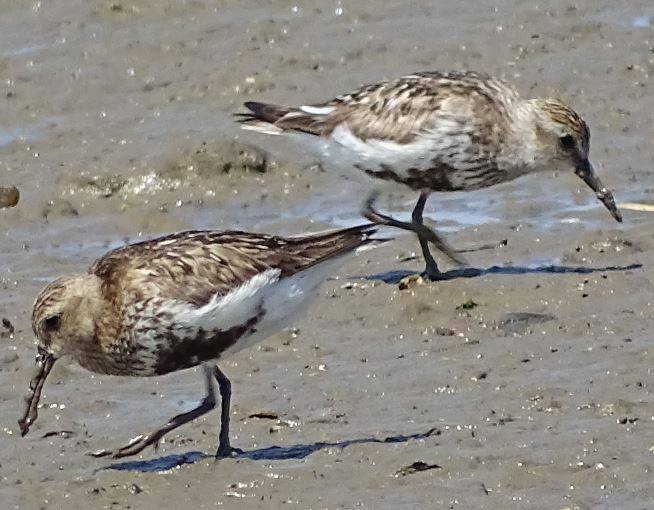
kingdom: Animalia
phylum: Chordata
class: Aves
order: Charadriiformes
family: Scolopacidae
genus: Calidris
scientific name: Calidris alpina
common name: Dunlin
